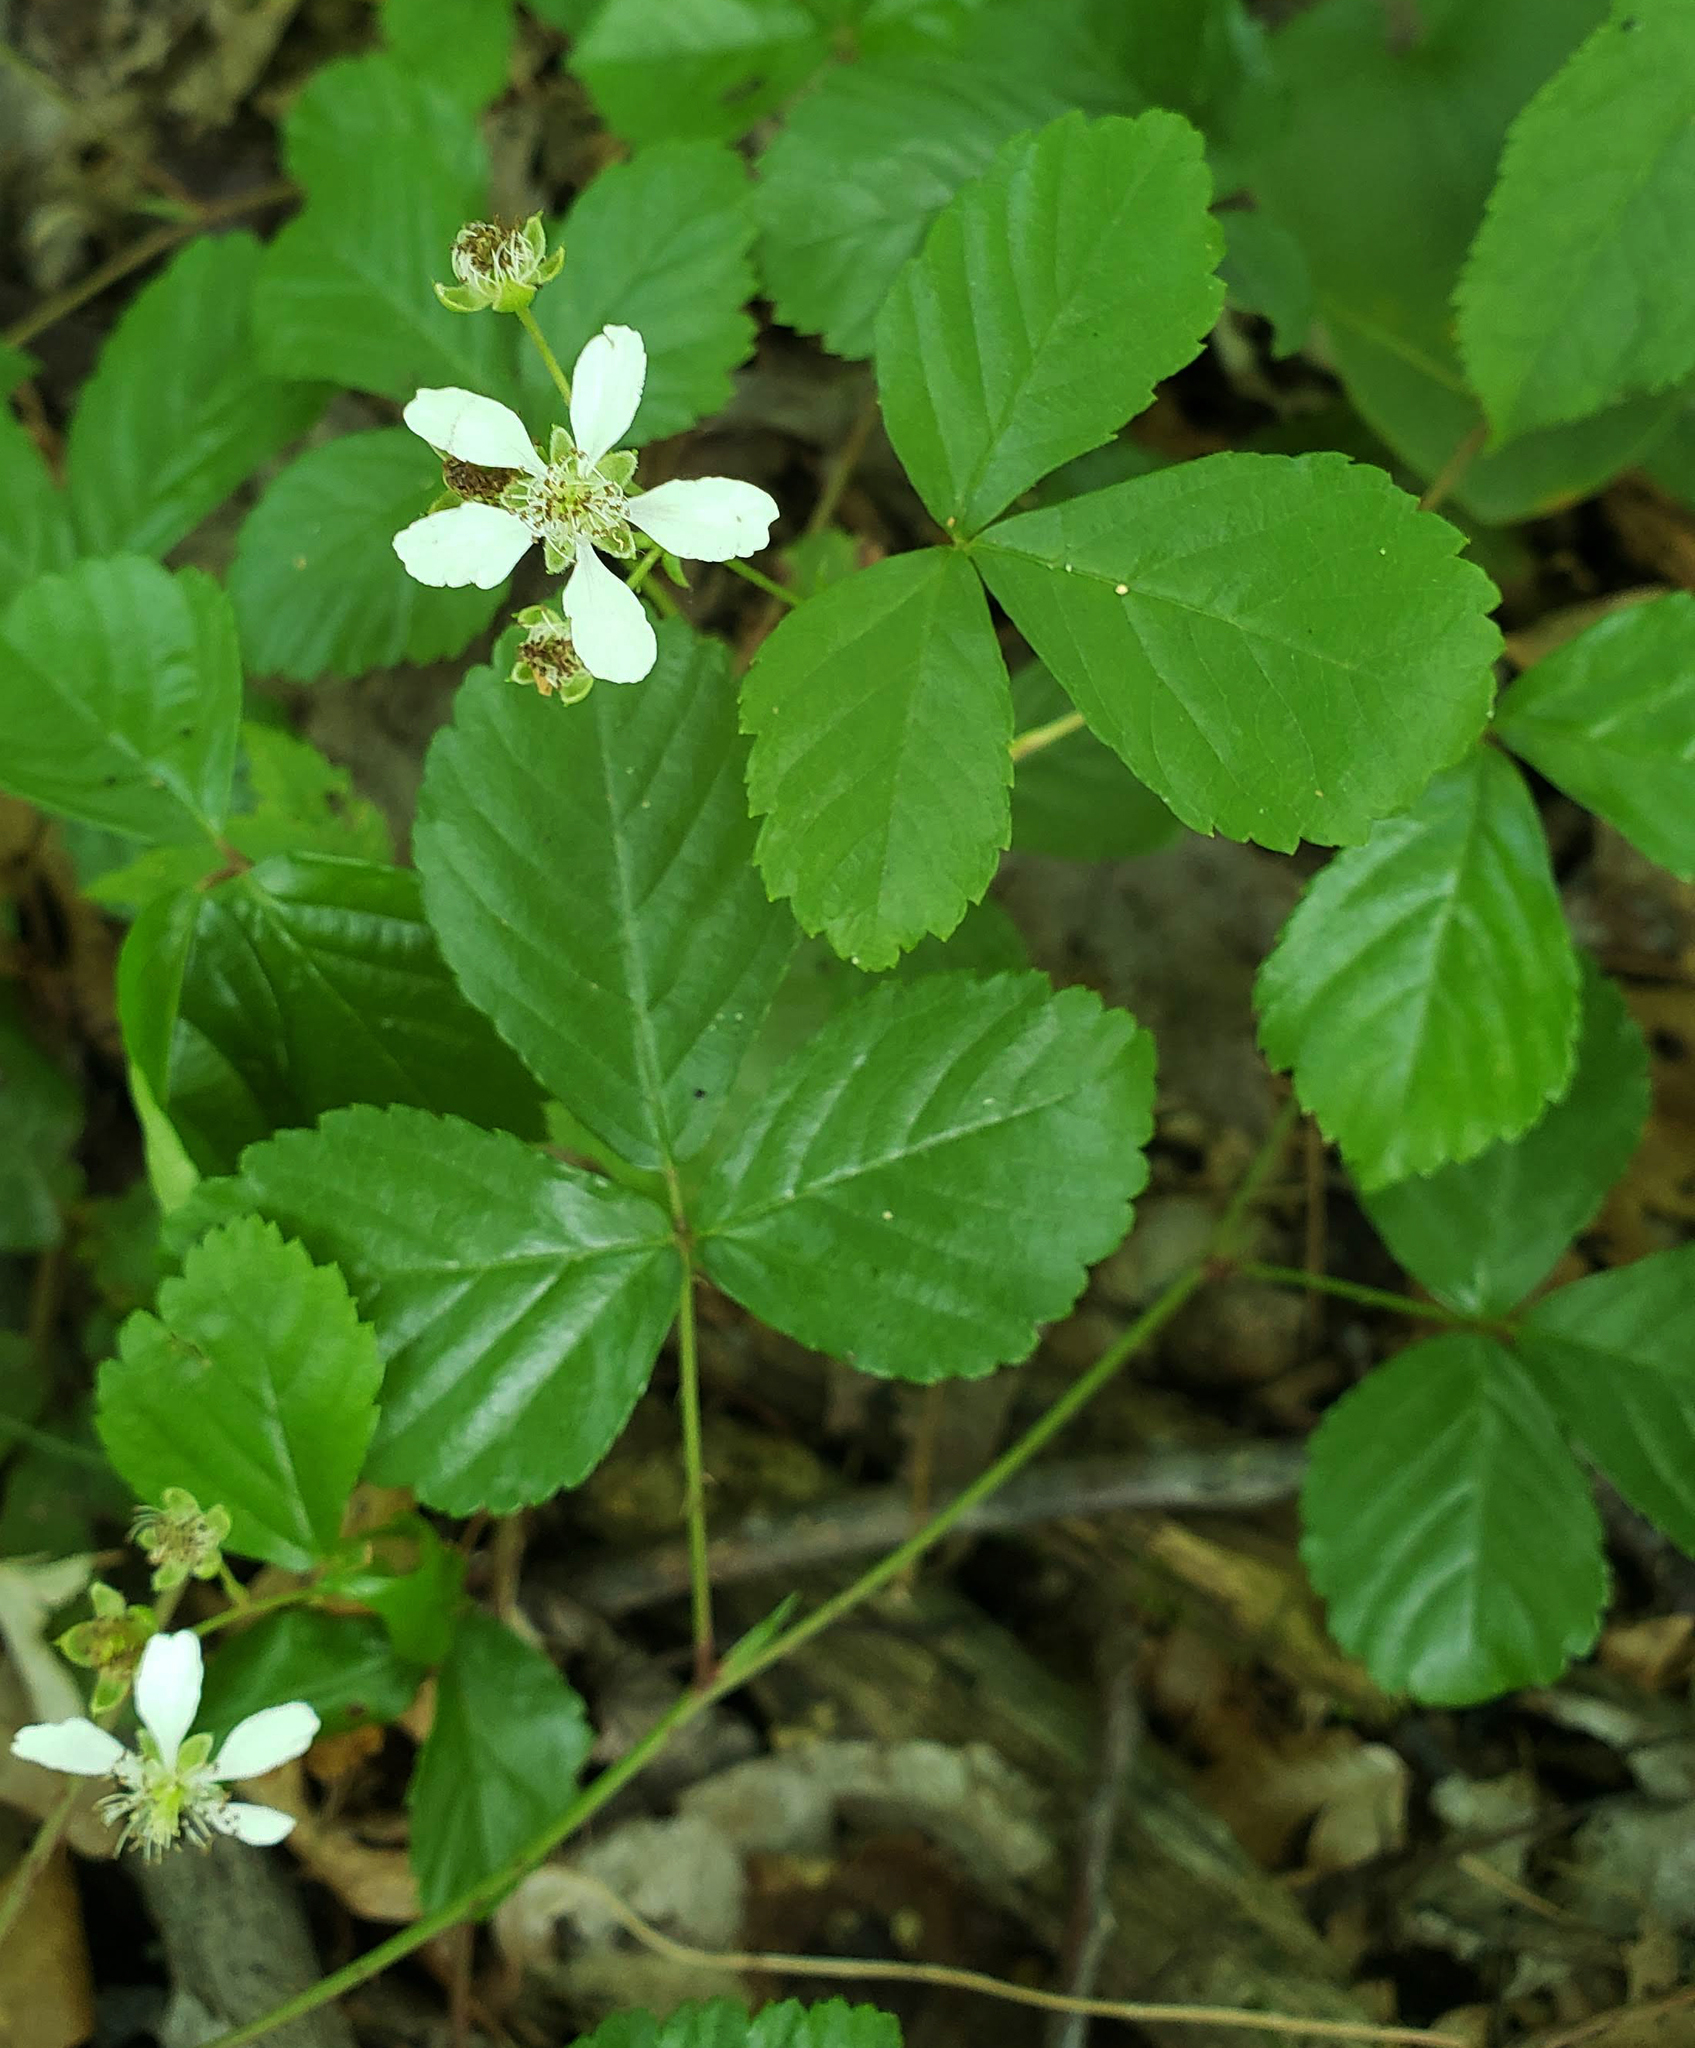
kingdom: Plantae
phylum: Tracheophyta
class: Magnoliopsida
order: Rosales
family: Rosaceae
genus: Rubus
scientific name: Rubus hispidus
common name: Running blackberry
